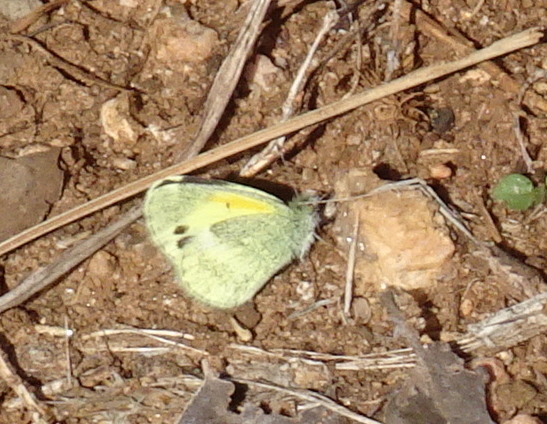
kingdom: Animalia
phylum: Arthropoda
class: Insecta
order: Lepidoptera
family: Pieridae
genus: Nathalis
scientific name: Nathalis iole
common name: Dainty sulphur
